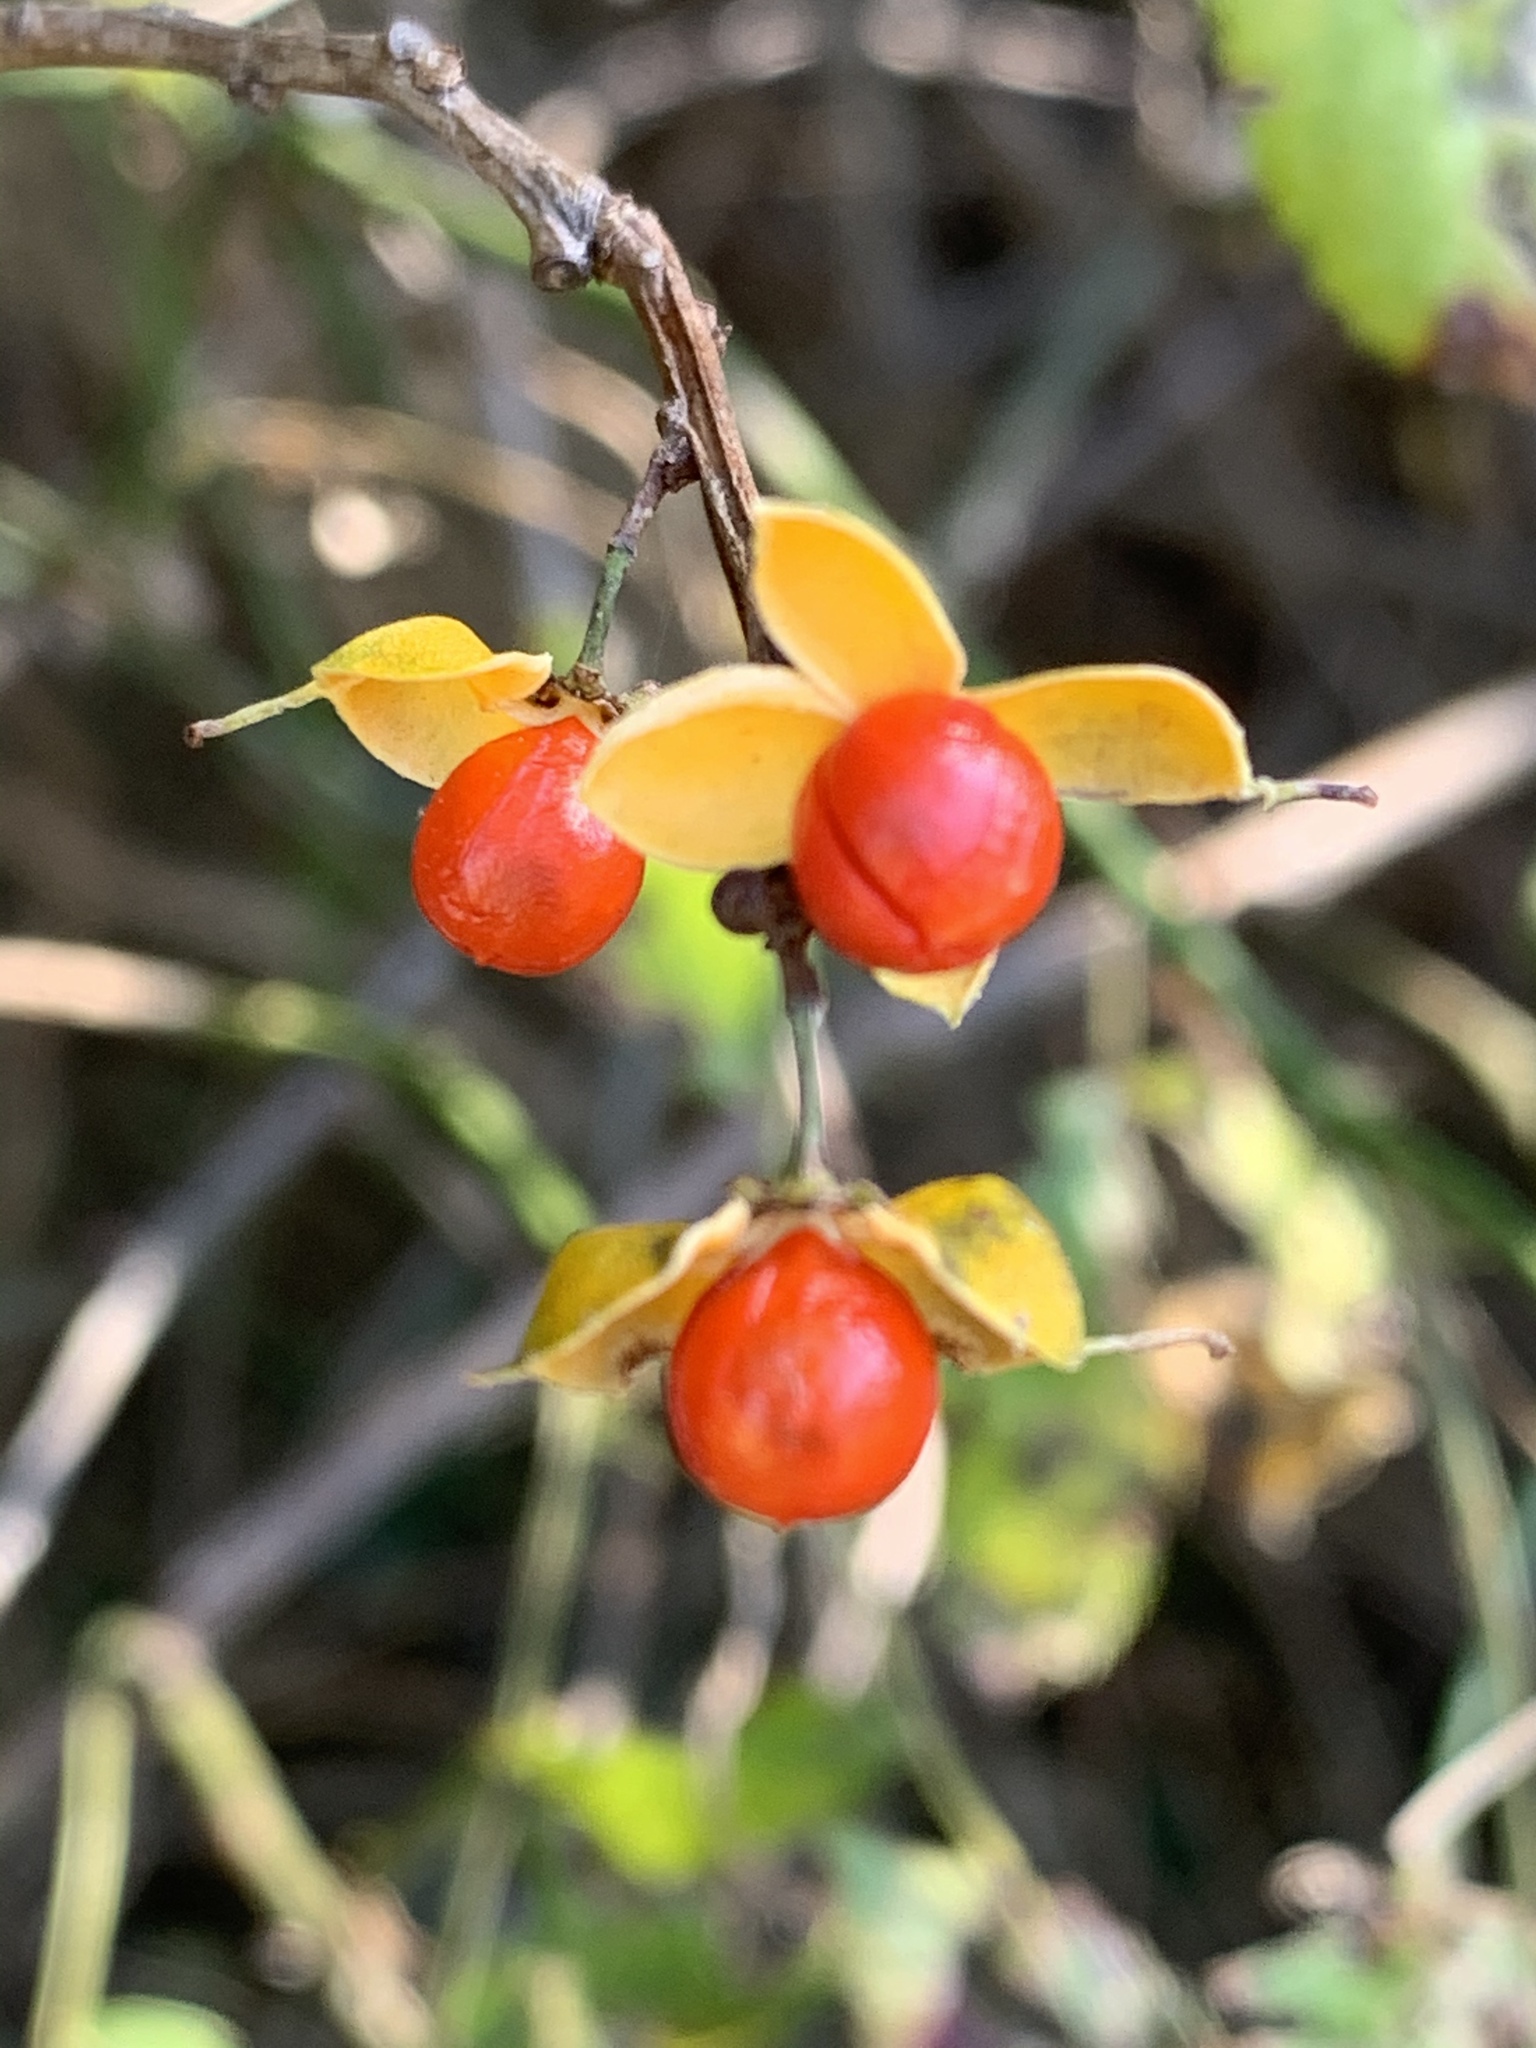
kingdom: Plantae
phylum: Tracheophyta
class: Magnoliopsida
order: Celastrales
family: Celastraceae
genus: Celastrus
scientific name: Celastrus orbiculatus
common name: Oriental bittersweet
